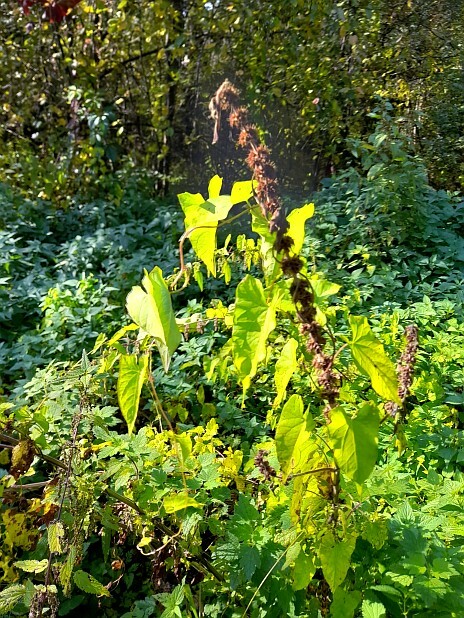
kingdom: Plantae
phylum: Tracheophyta
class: Magnoliopsida
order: Solanales
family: Convolvulaceae
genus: Calystegia
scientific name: Calystegia
